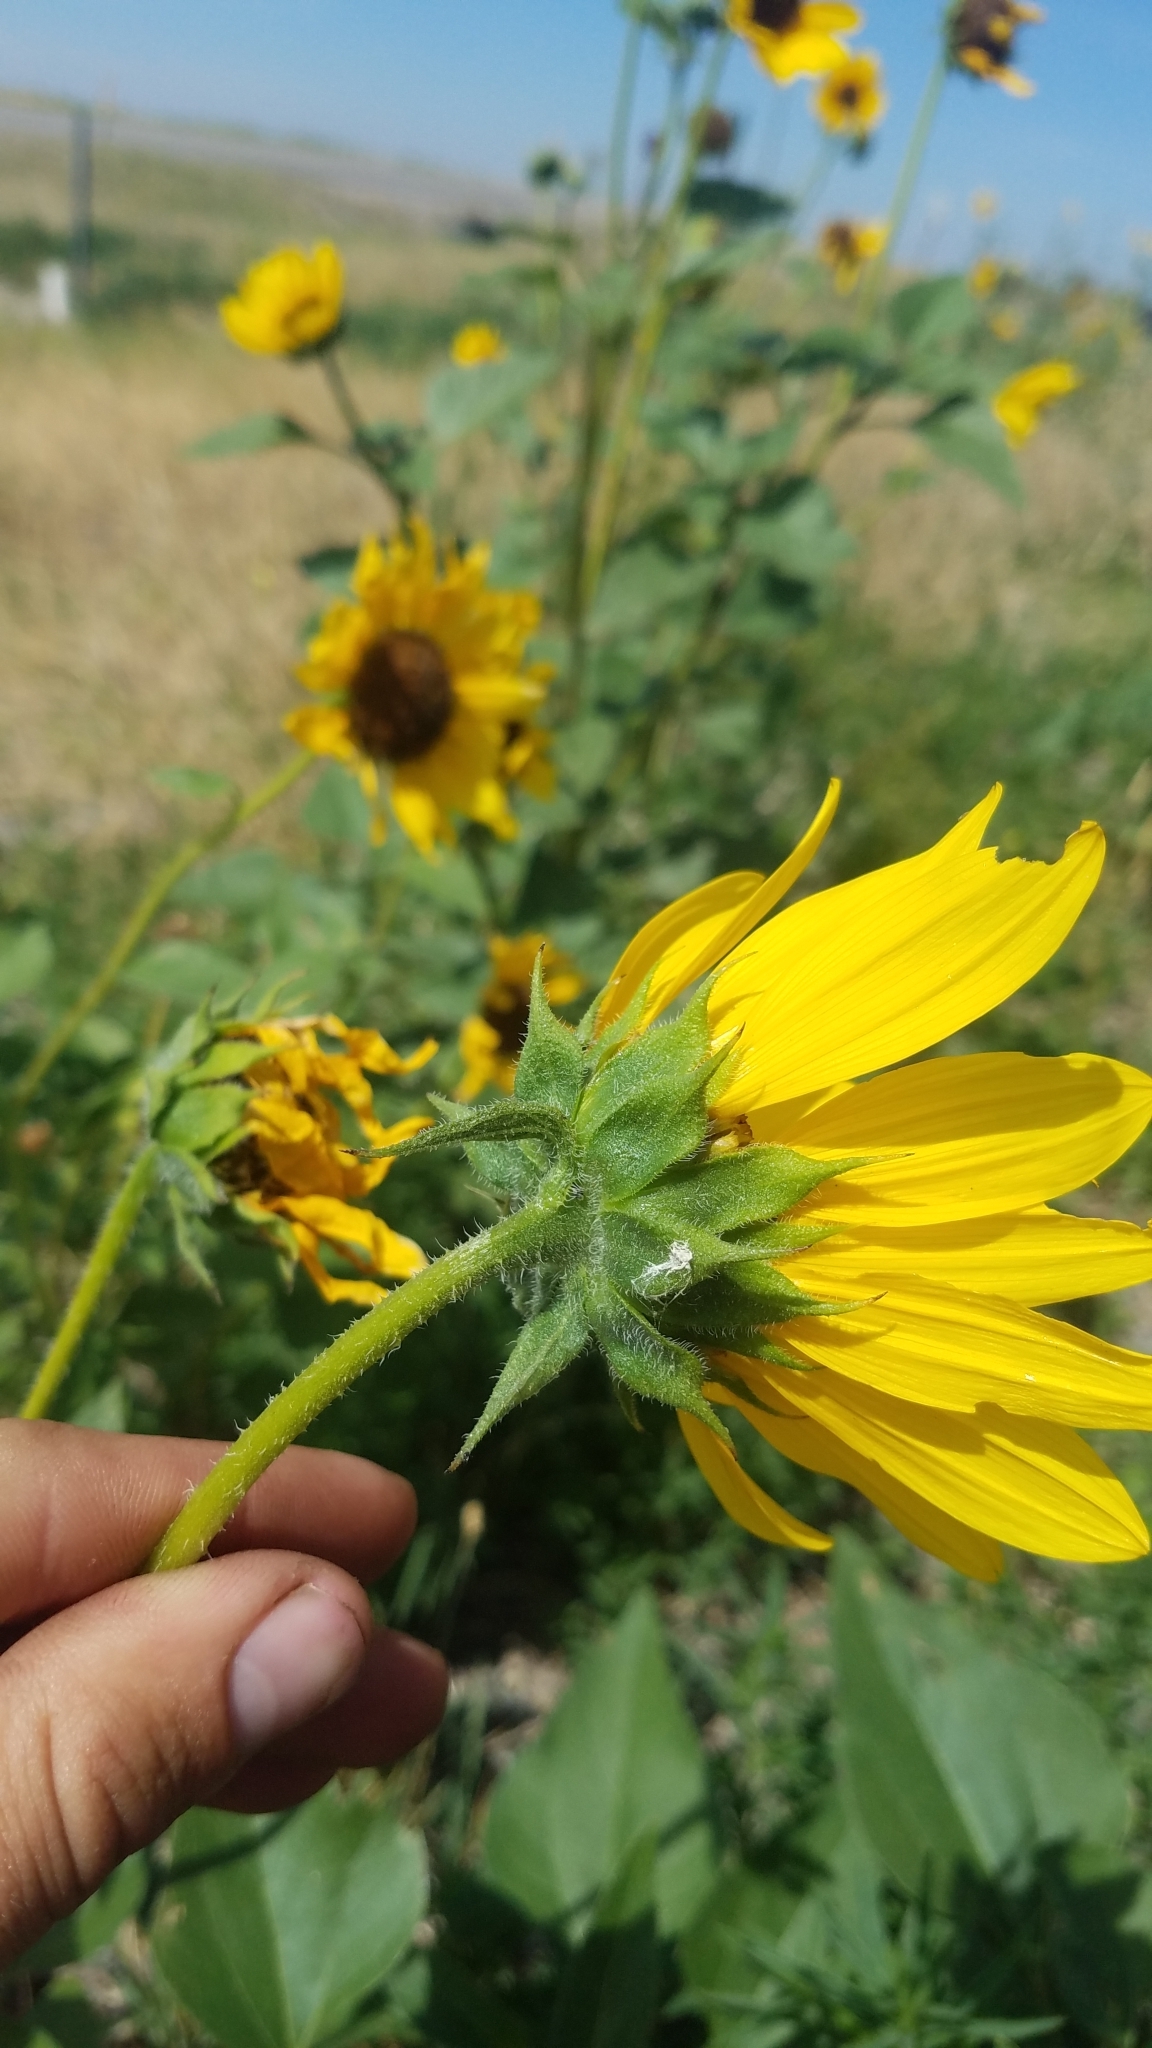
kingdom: Plantae
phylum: Tracheophyta
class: Magnoliopsida
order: Asterales
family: Asteraceae
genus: Helianthus
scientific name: Helianthus annuus
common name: Sunflower
